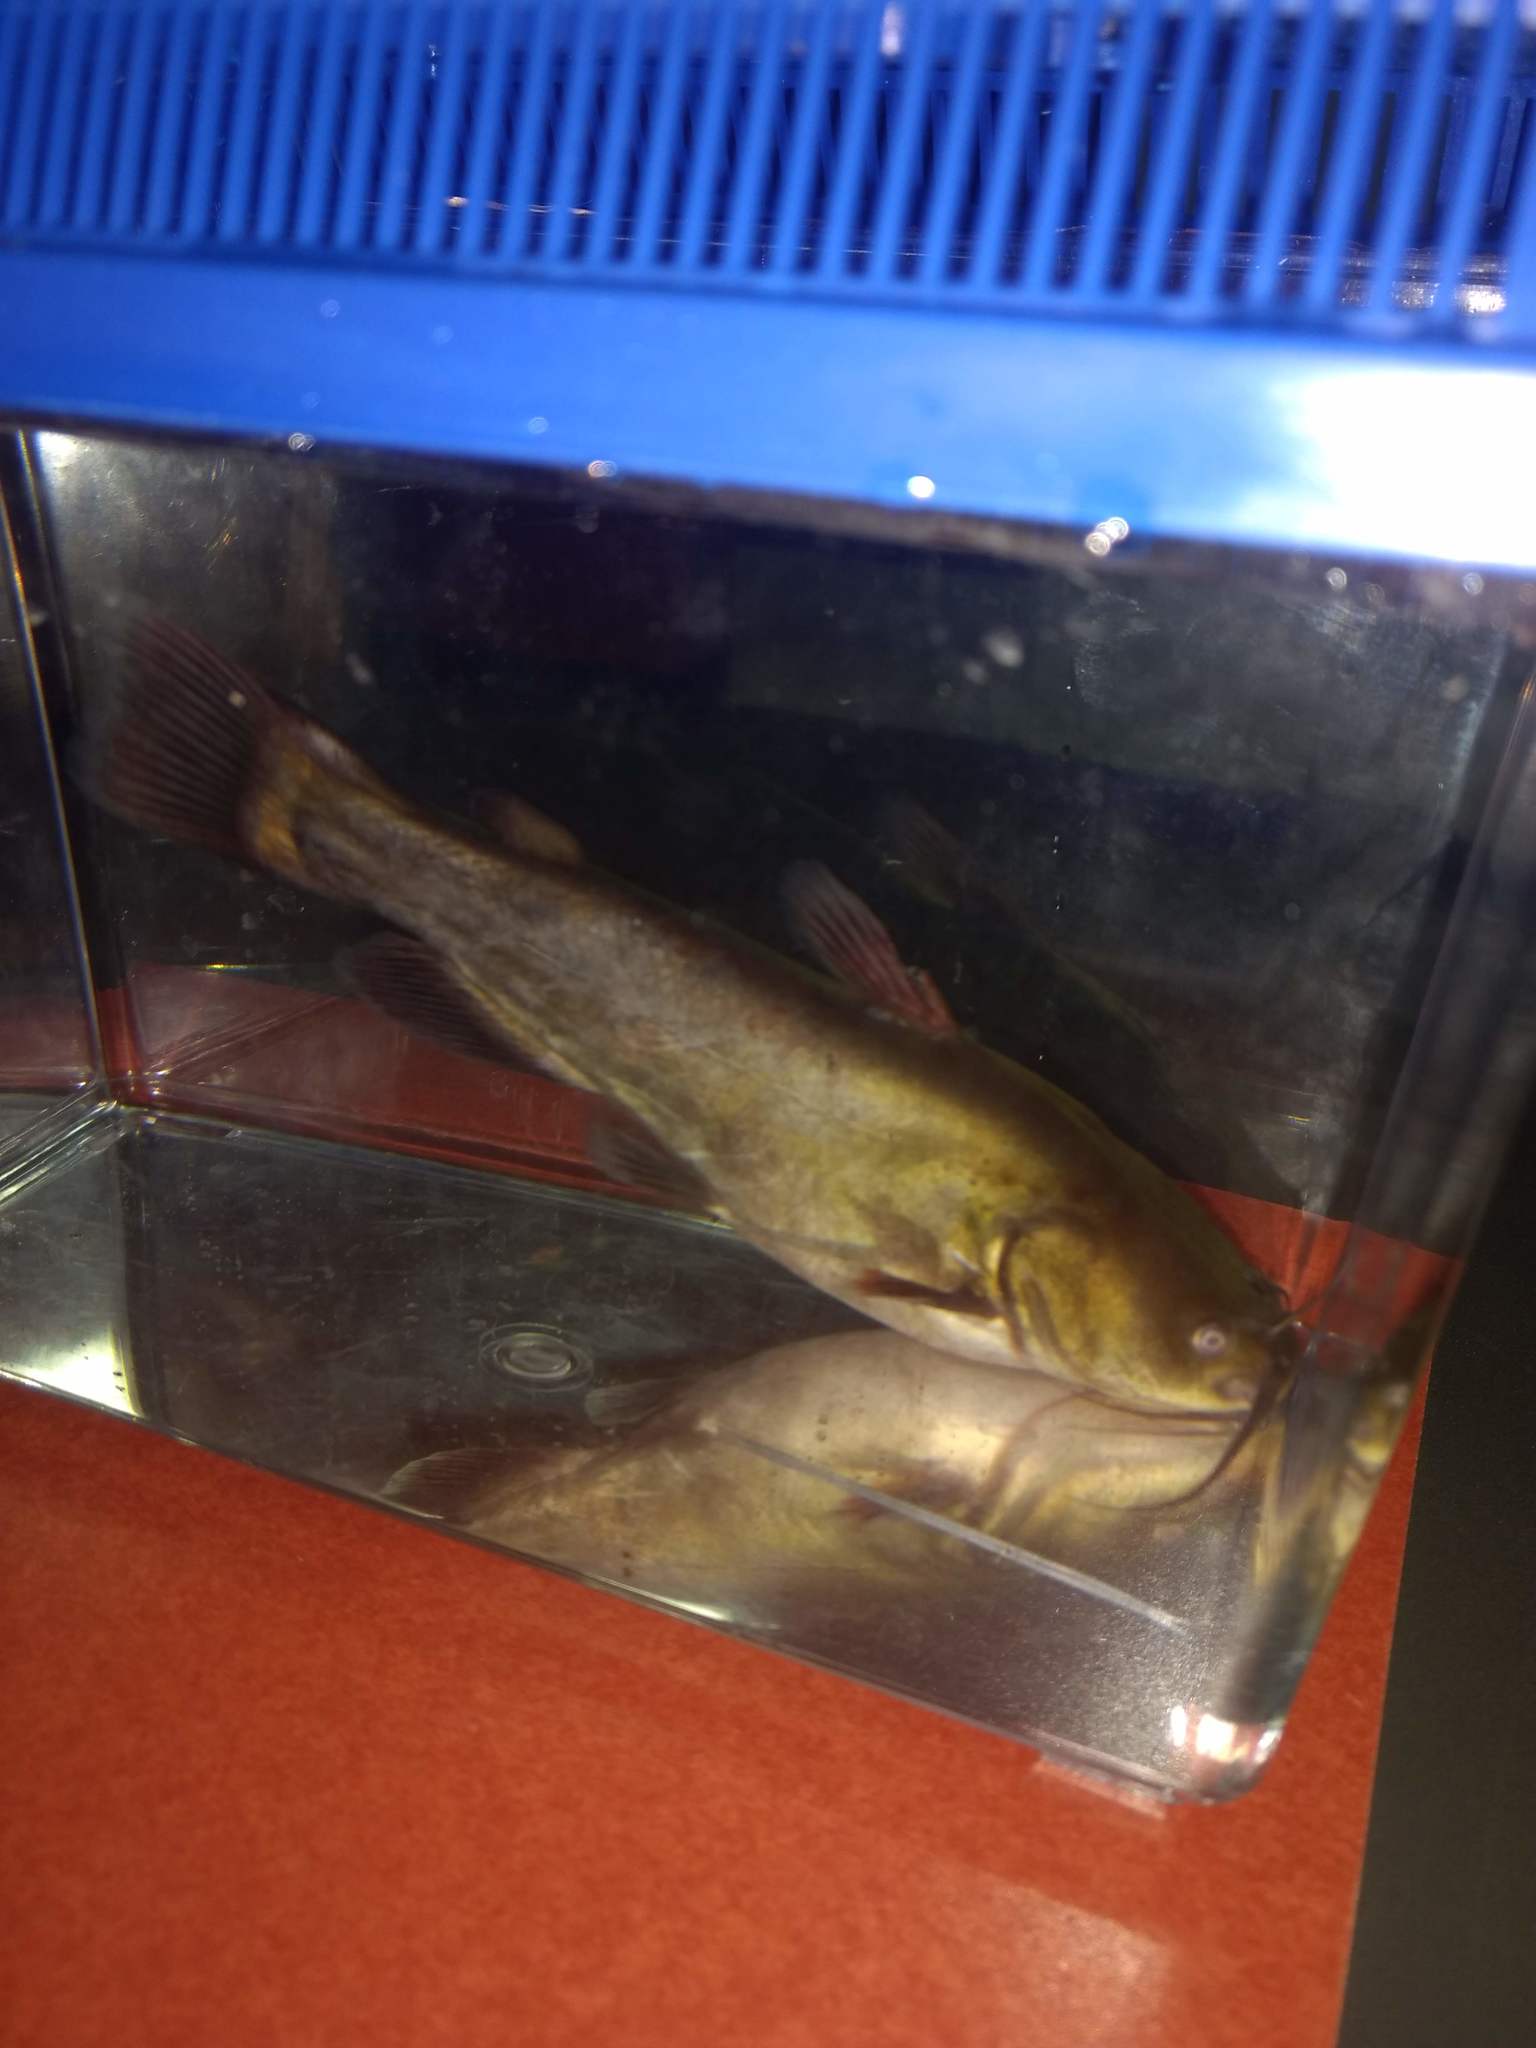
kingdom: Animalia
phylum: Chordata
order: Siluriformes
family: Ictaluridae
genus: Ameiurus
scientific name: Ameiurus melas
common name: Black bullhead
